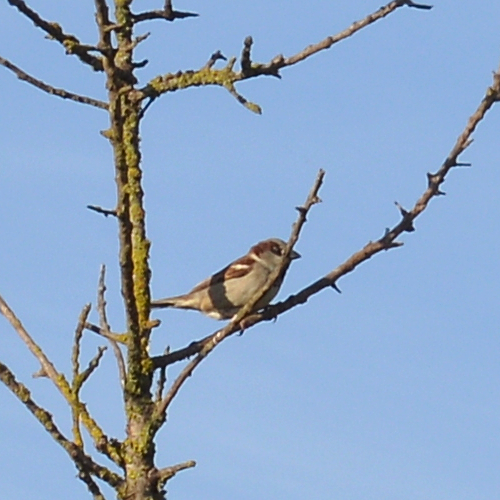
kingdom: Animalia
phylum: Chordata
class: Aves
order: Passeriformes
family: Passeridae
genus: Passer
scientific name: Passer domesticus
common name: House sparrow
